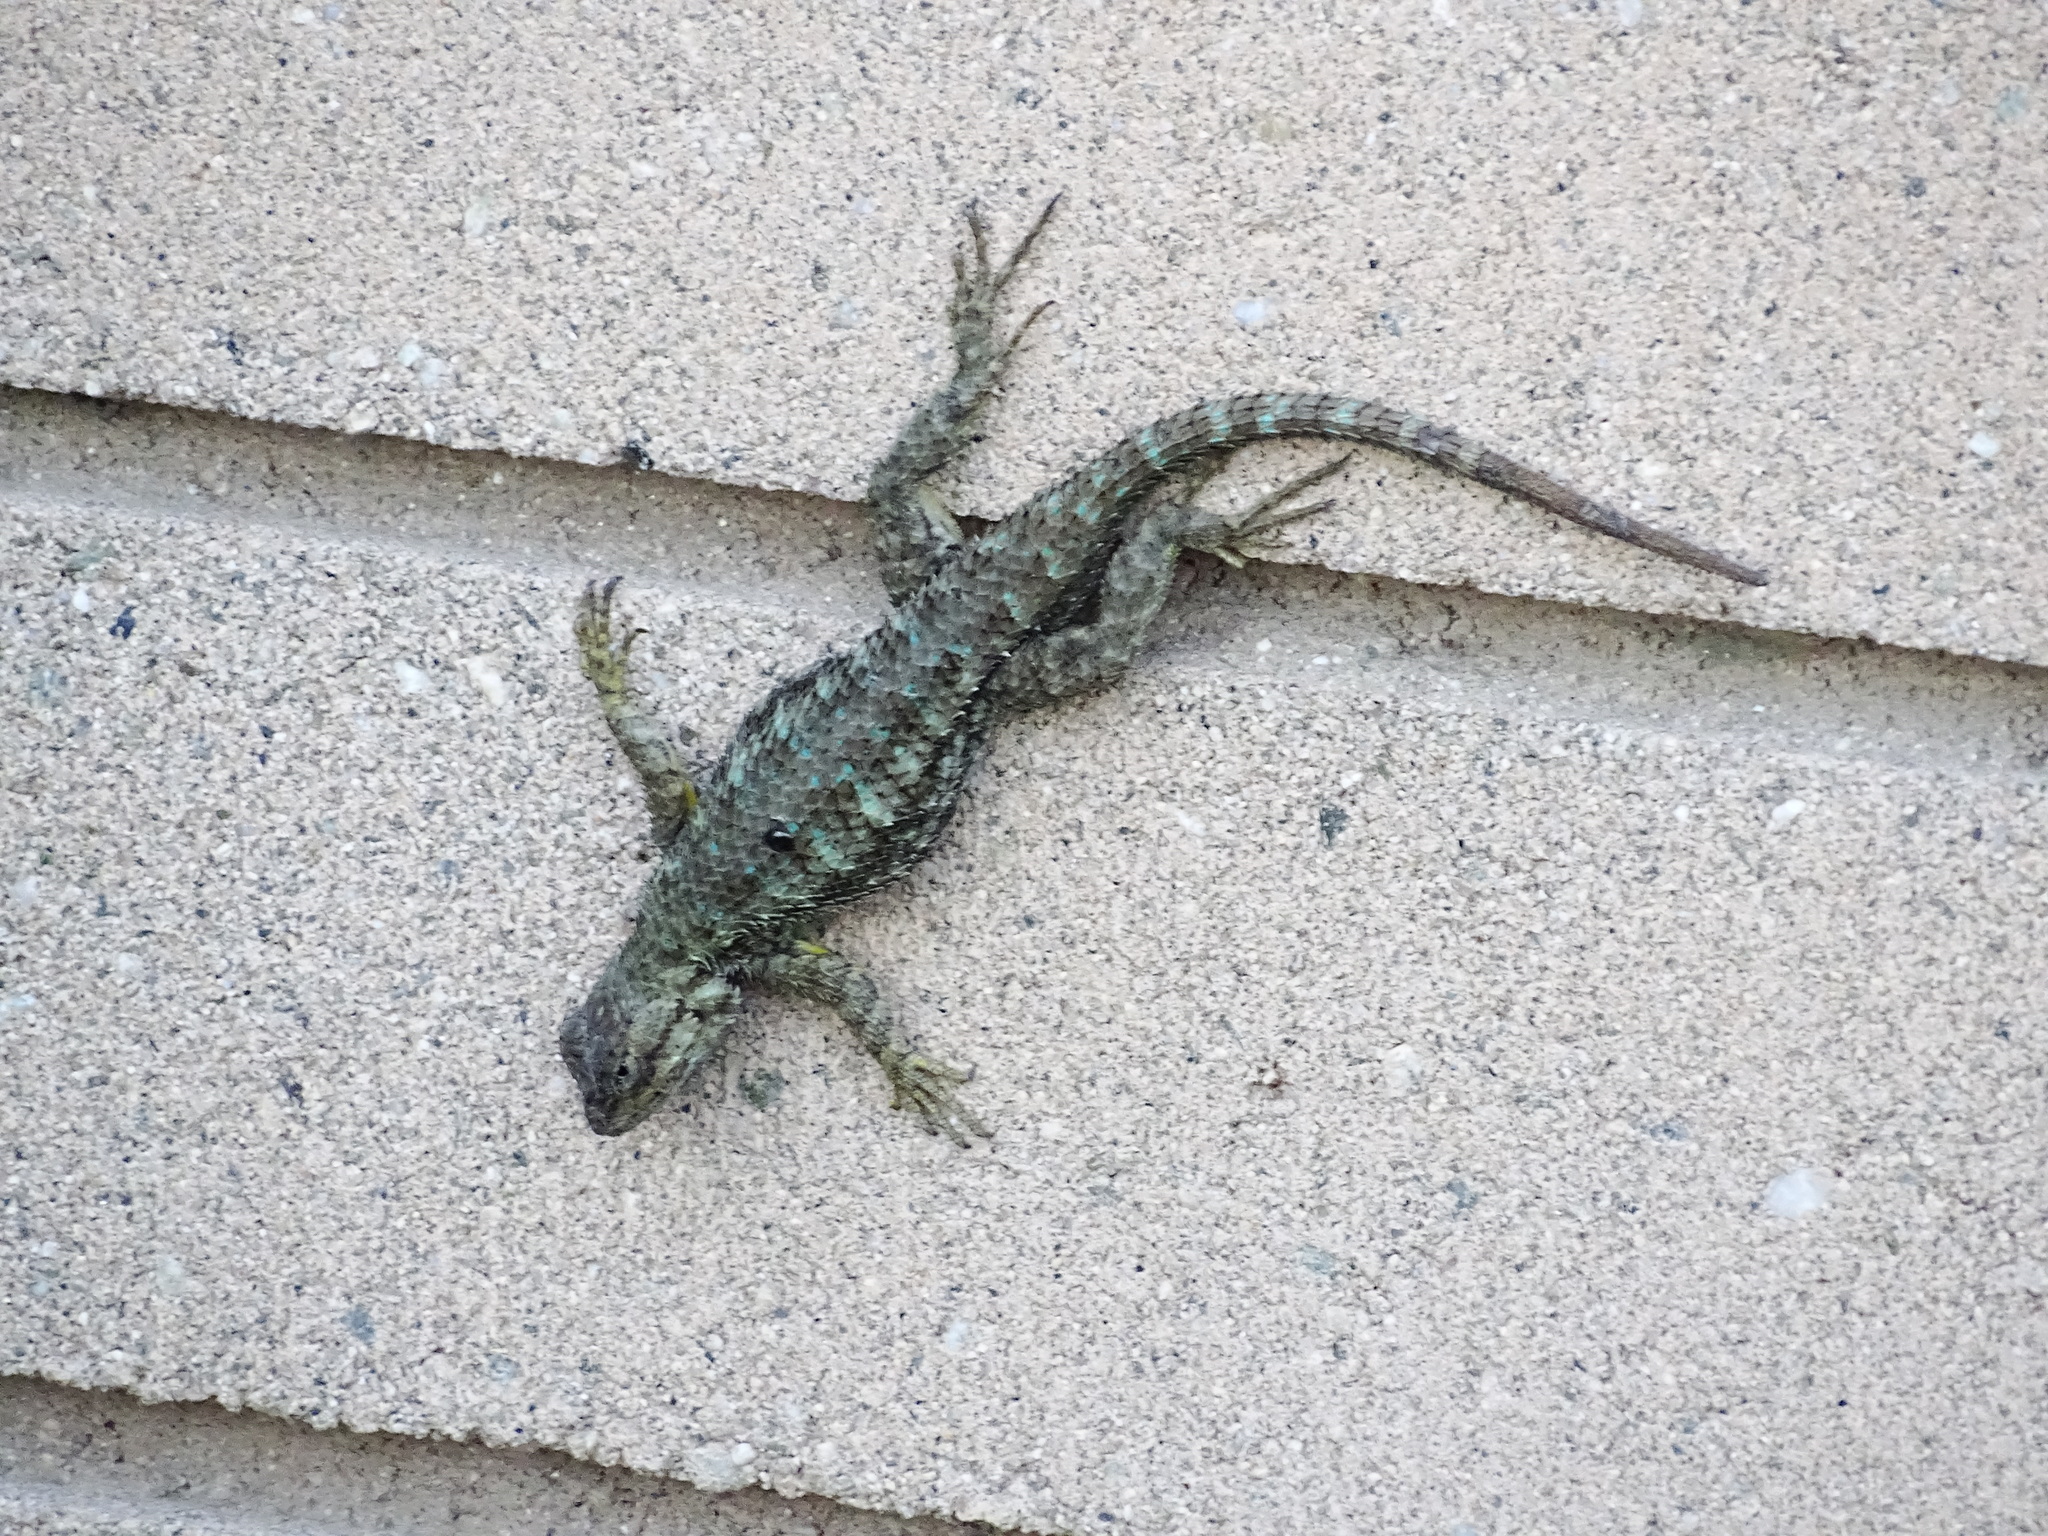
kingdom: Animalia
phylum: Chordata
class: Squamata
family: Phrynosomatidae
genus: Sceloporus
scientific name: Sceloporus occidentalis
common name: Western fence lizard
